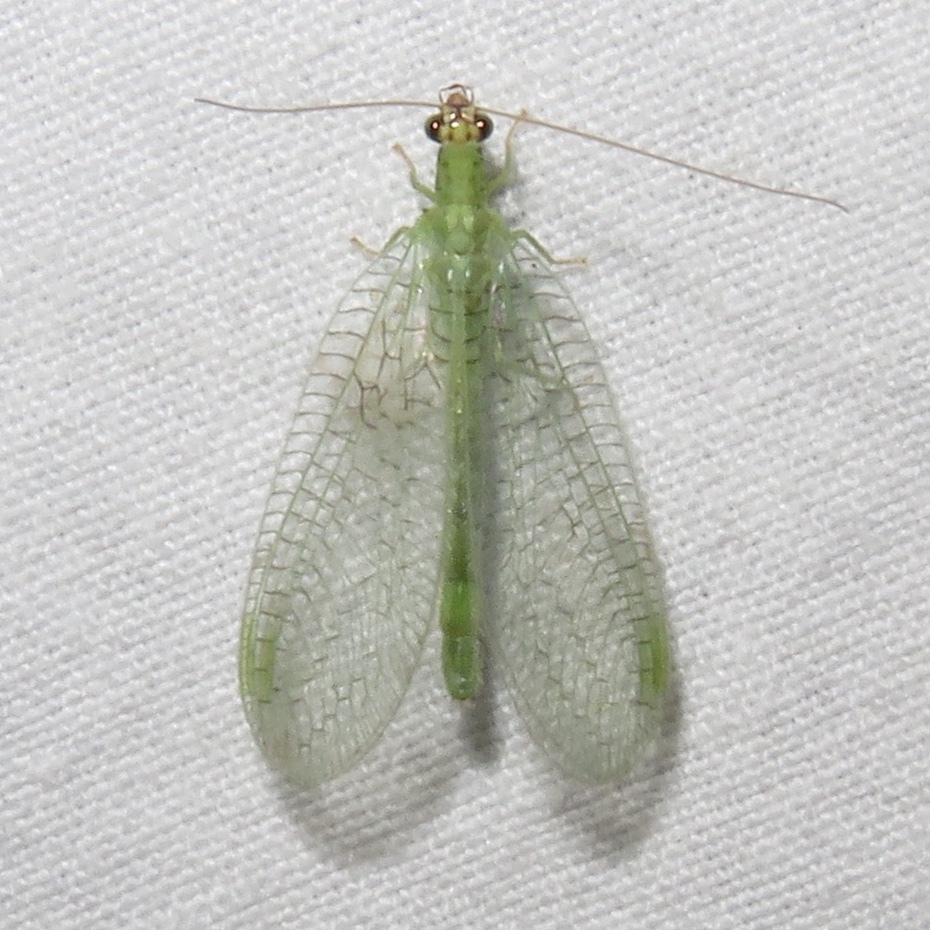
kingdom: Animalia
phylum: Arthropoda
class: Insecta
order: Neuroptera
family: Chrysopidae
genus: Chrysopa
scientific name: Chrysopa oculata
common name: Golden-eyed lacewing
